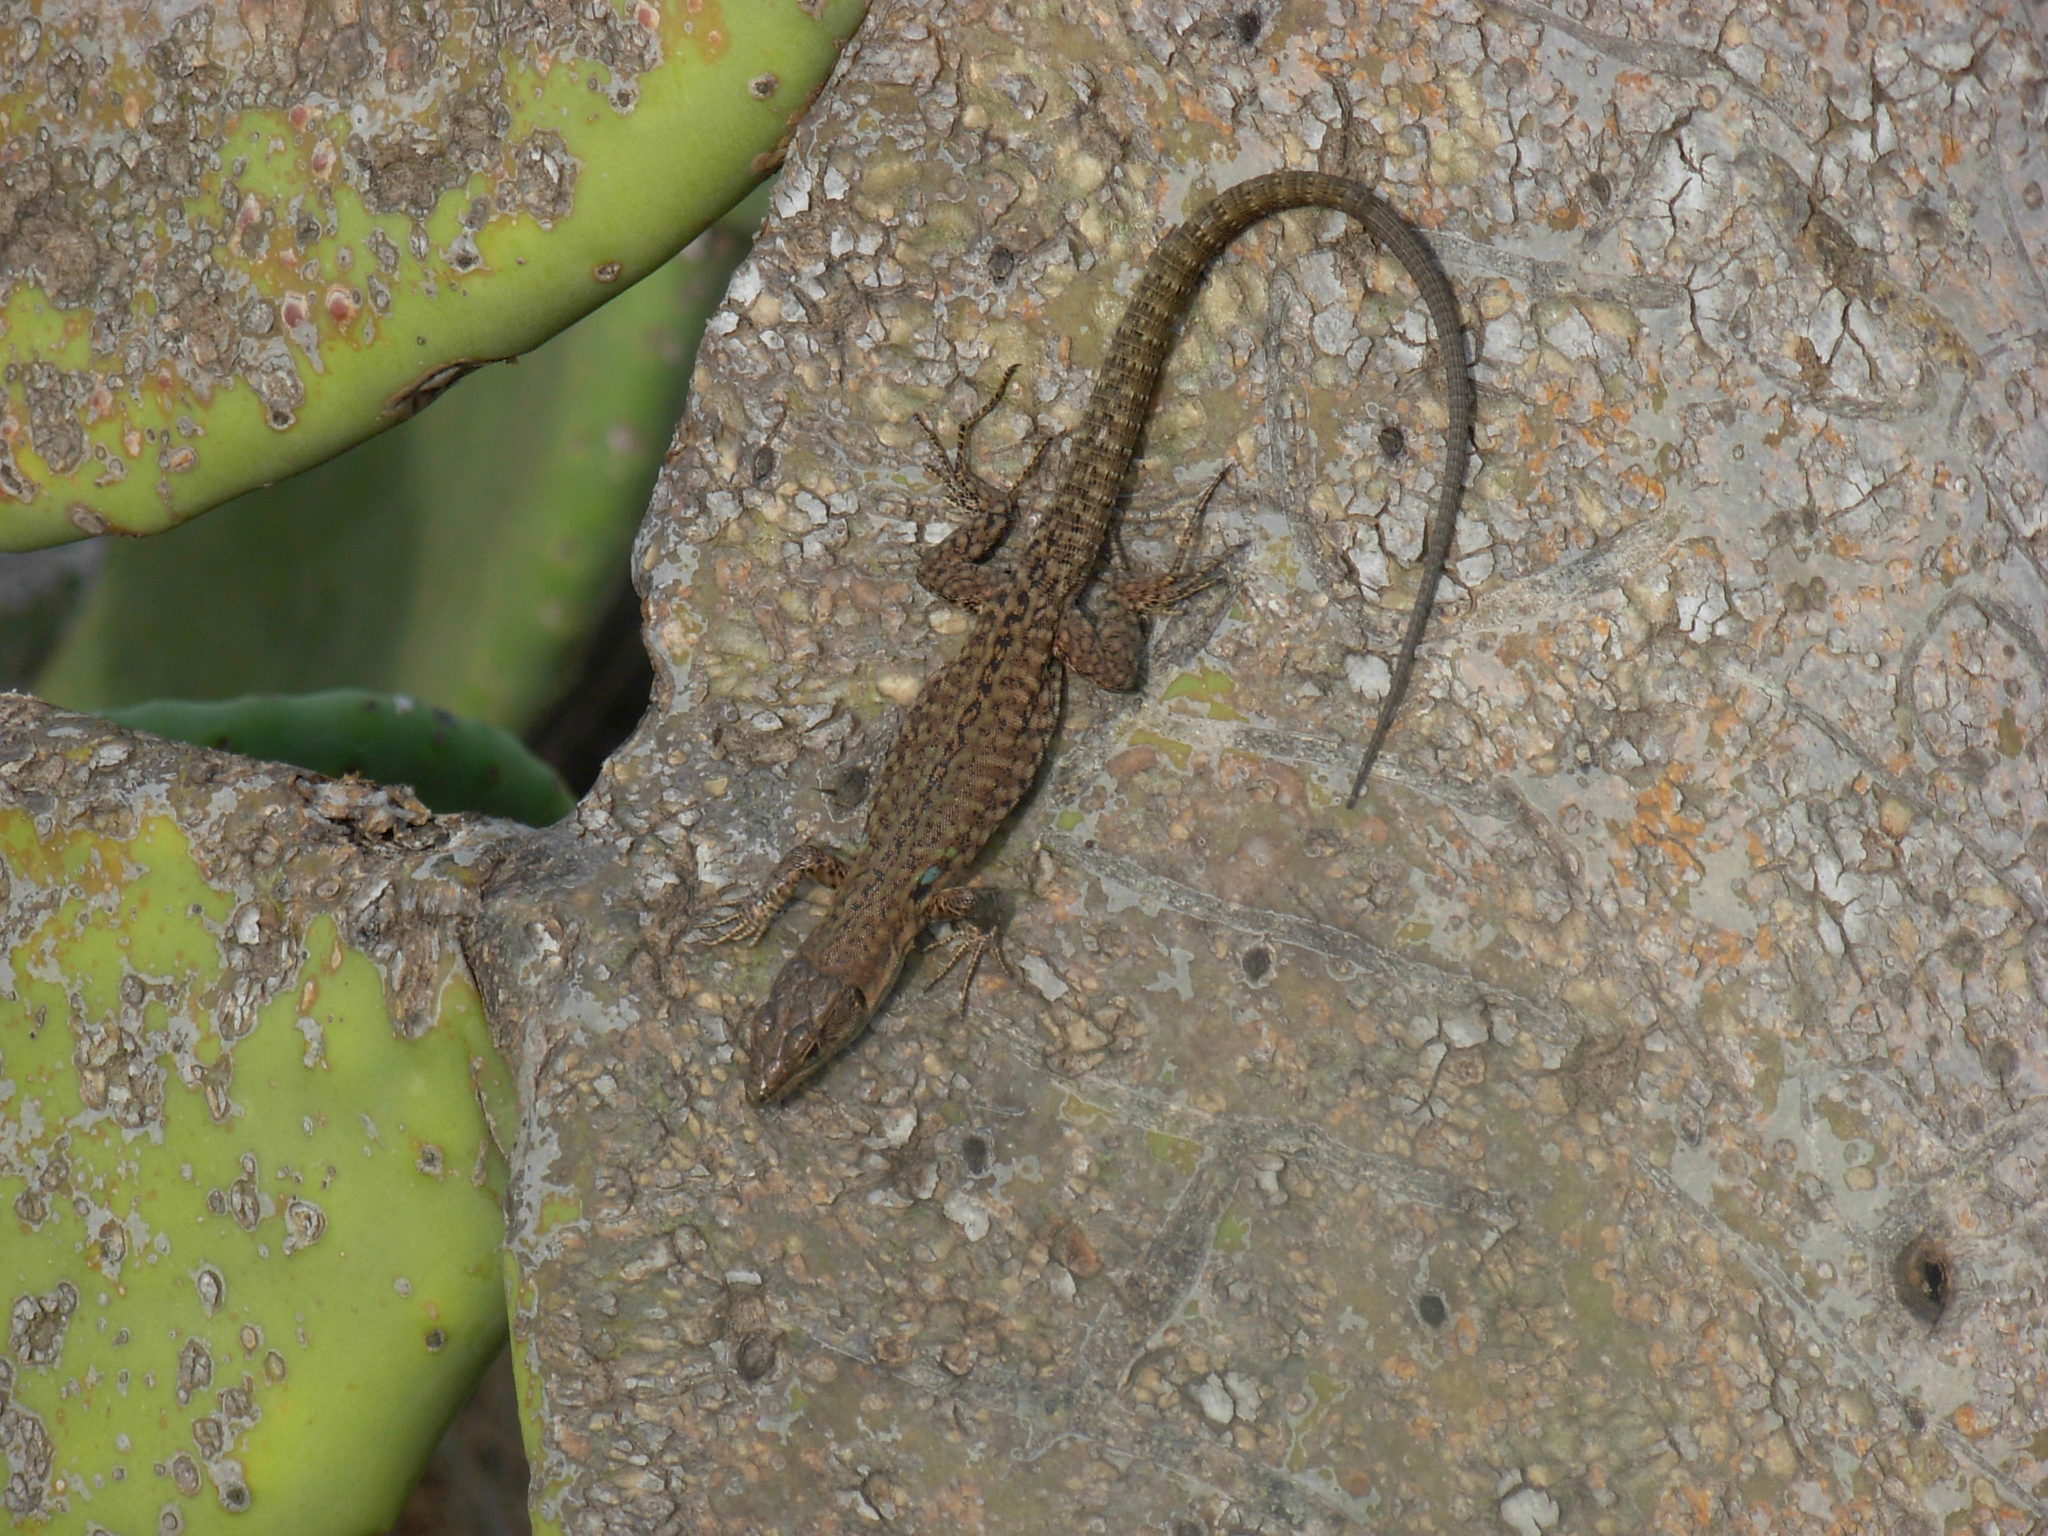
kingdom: Animalia
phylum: Chordata
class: Squamata
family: Lacertidae
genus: Podarcis
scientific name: Podarcis siculus
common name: Italian wall lizard
